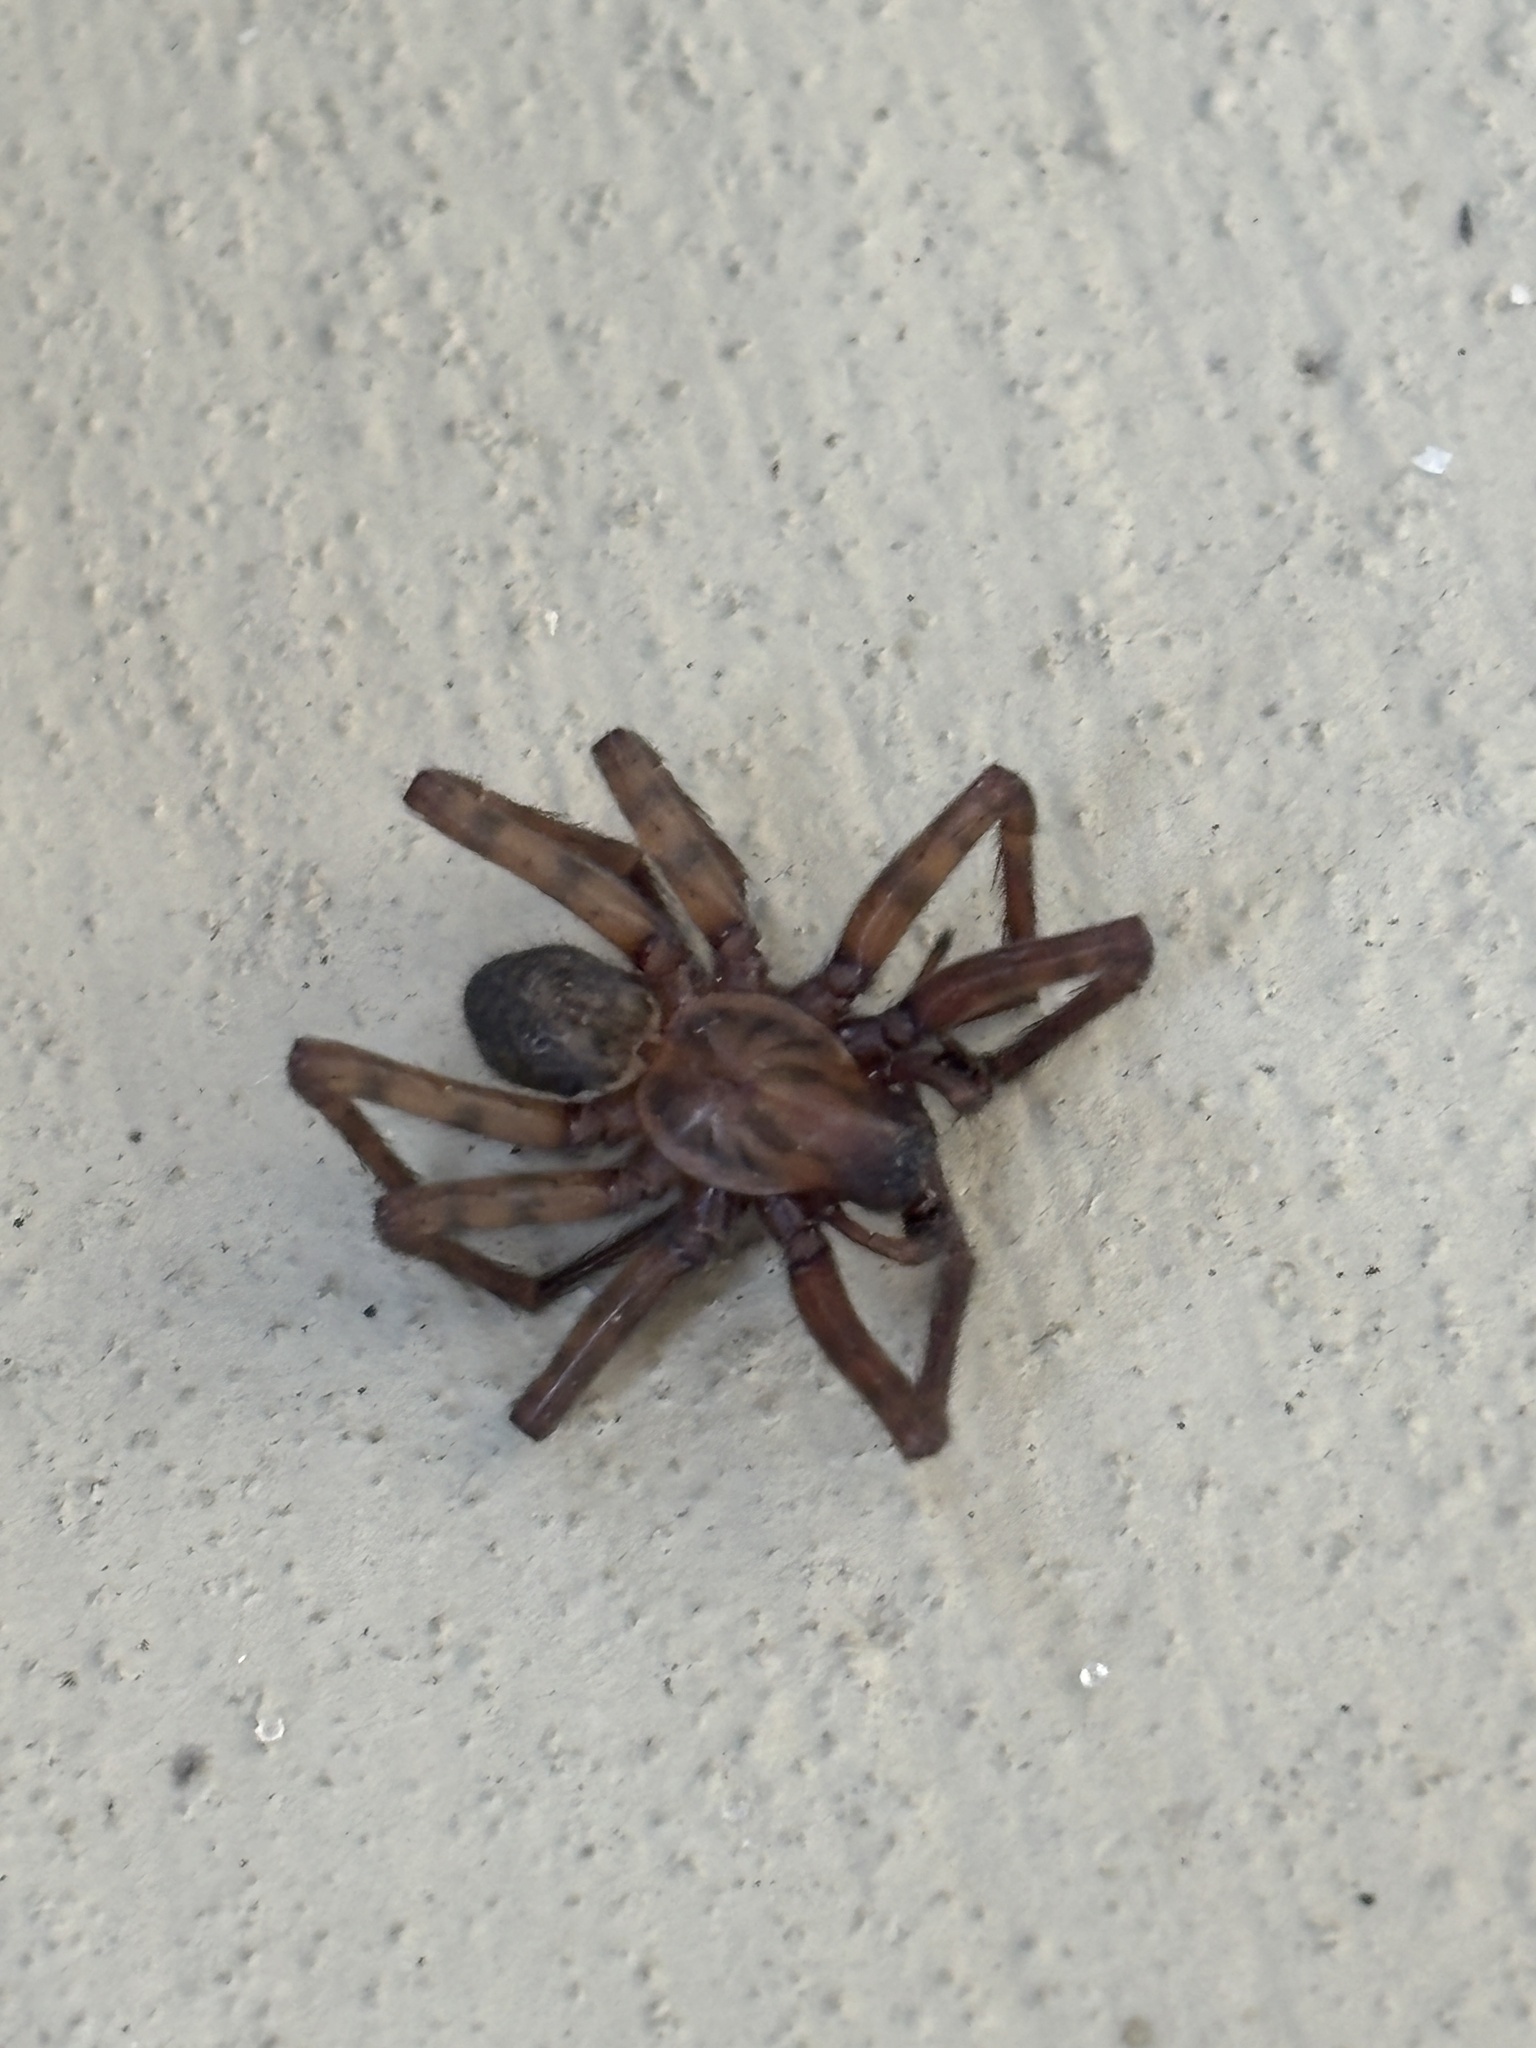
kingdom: Animalia
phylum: Arthropoda
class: Arachnida
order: Araneae
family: Agelenidae
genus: Coras
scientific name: Coras
